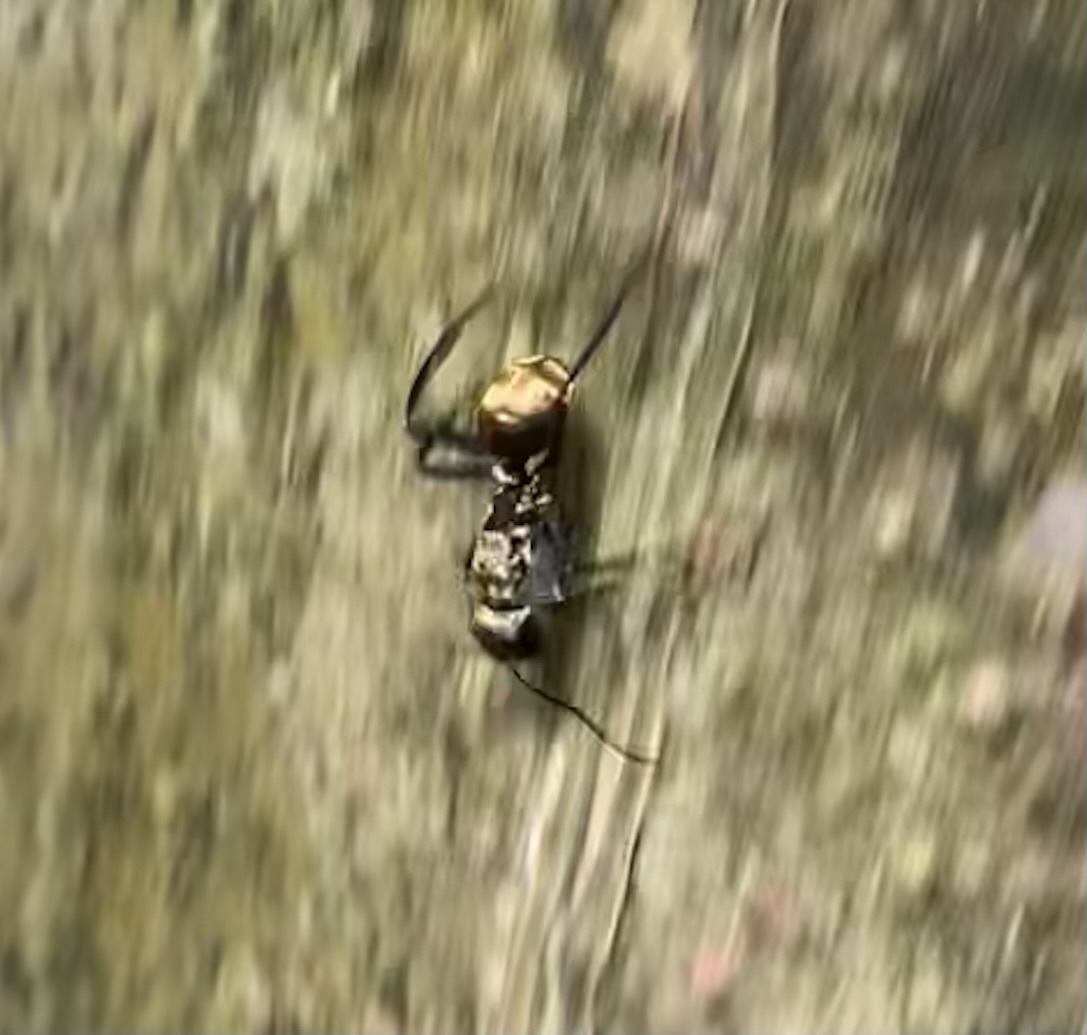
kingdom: Animalia
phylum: Arthropoda
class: Insecta
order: Hymenoptera
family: Formicidae
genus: Camponotus
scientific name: Camponotus sericeiventris
